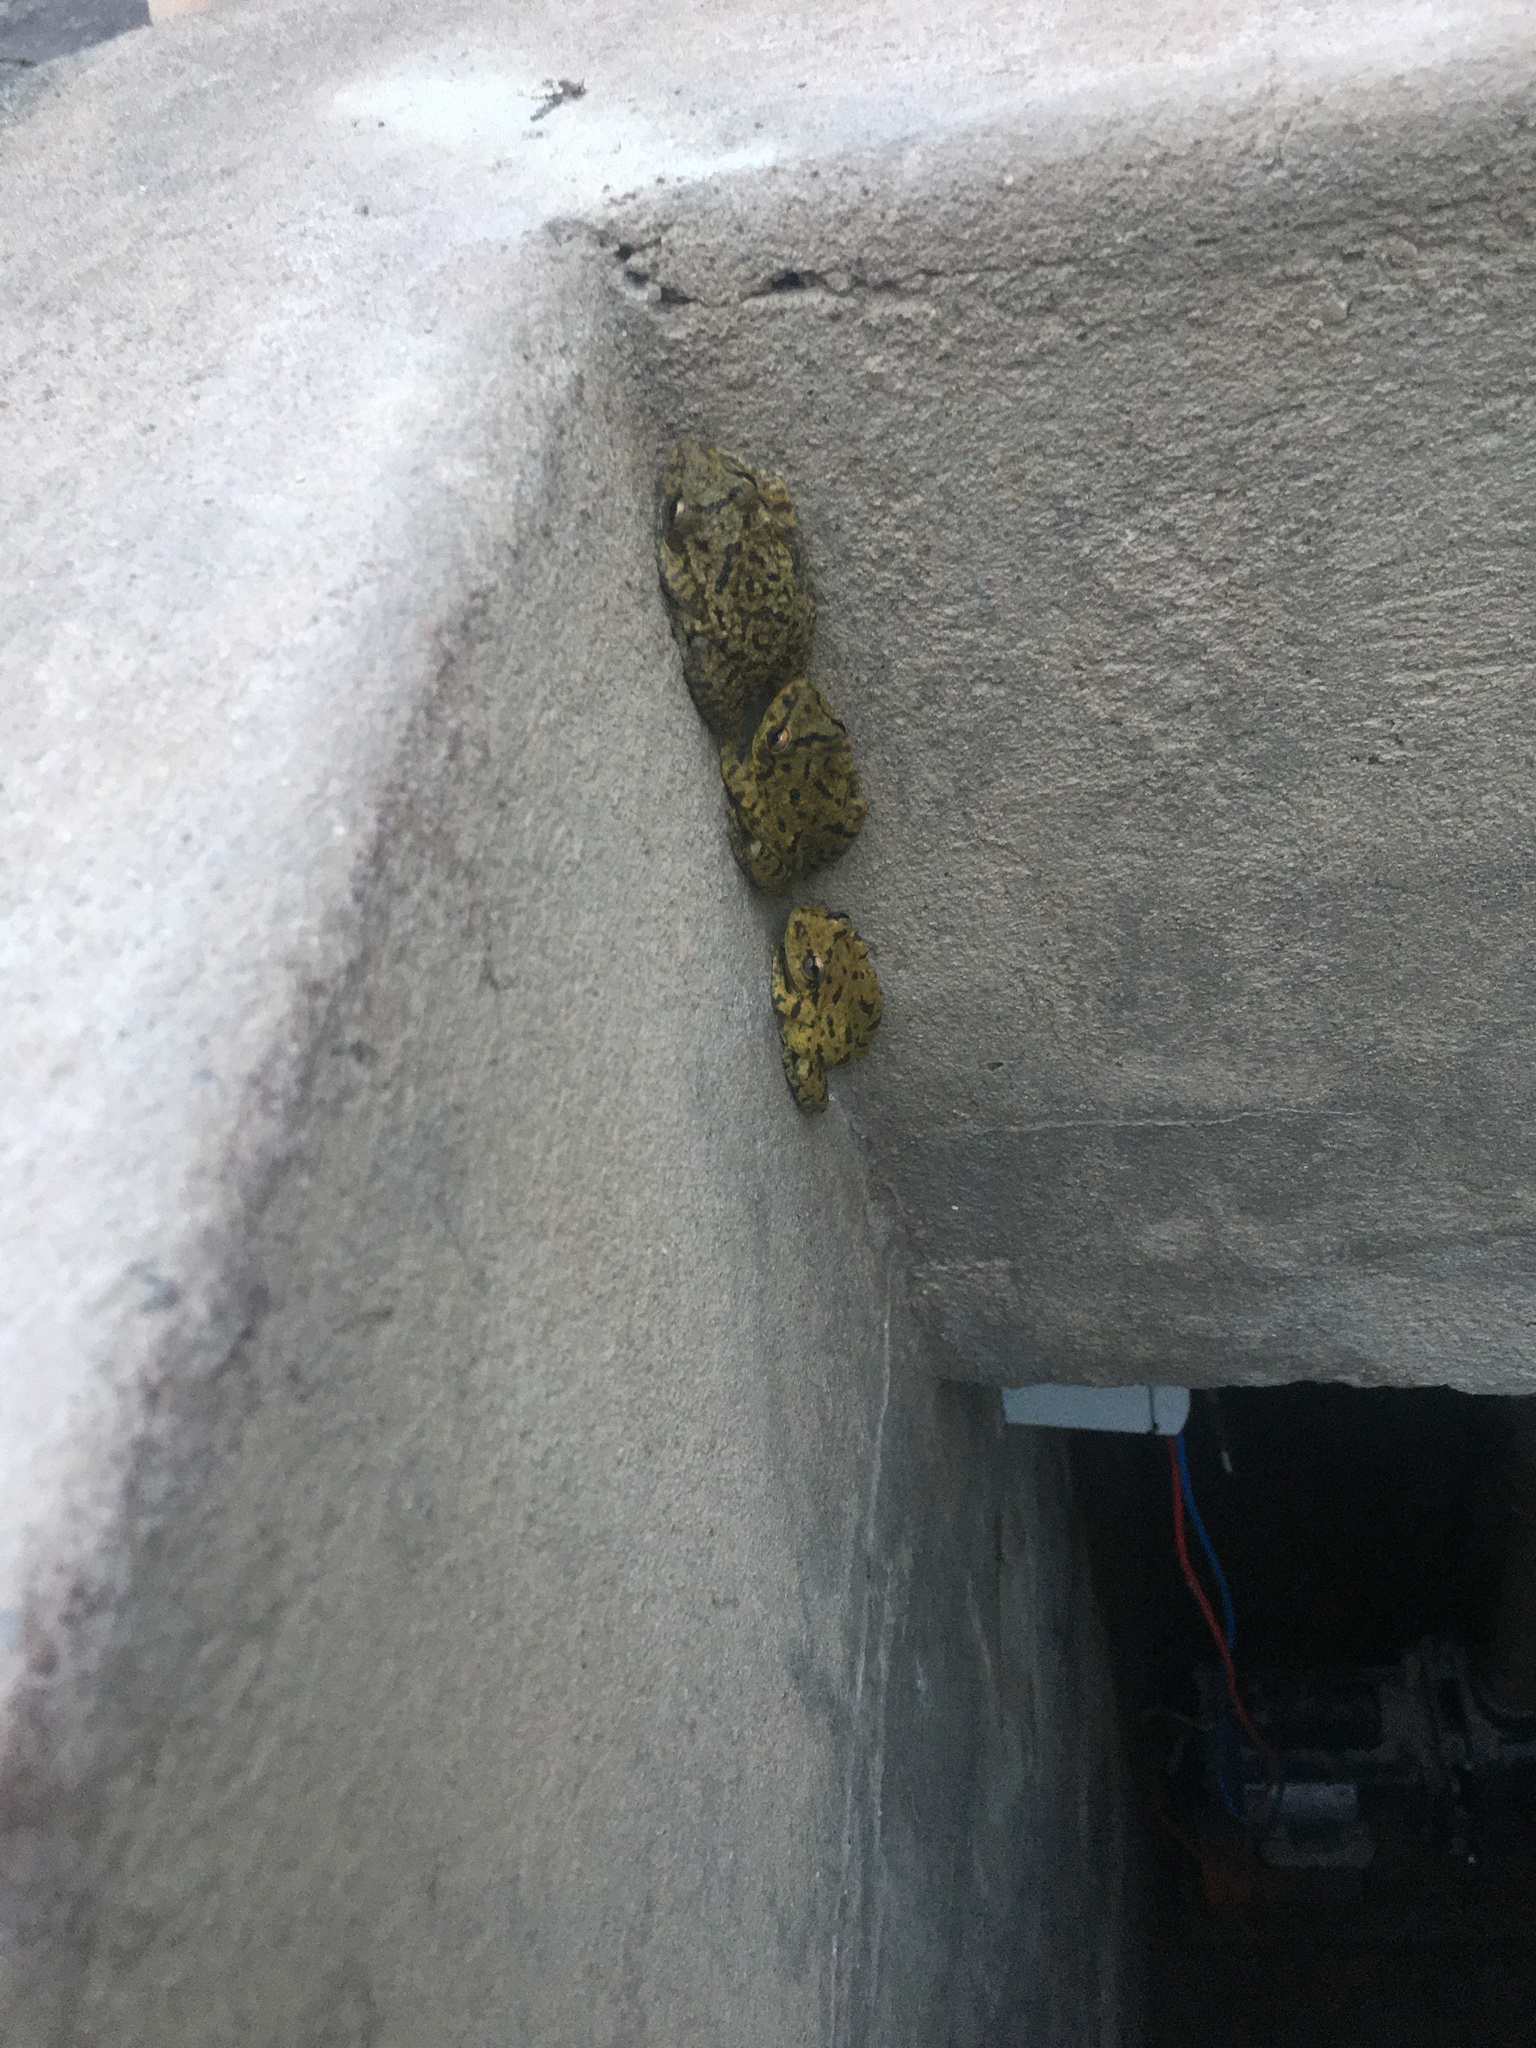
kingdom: Animalia
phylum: Chordata
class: Amphibia
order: Anura
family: Hylidae
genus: Scinax
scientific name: Scinax fuscovarius
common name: Fuscous-blotched treefrog
